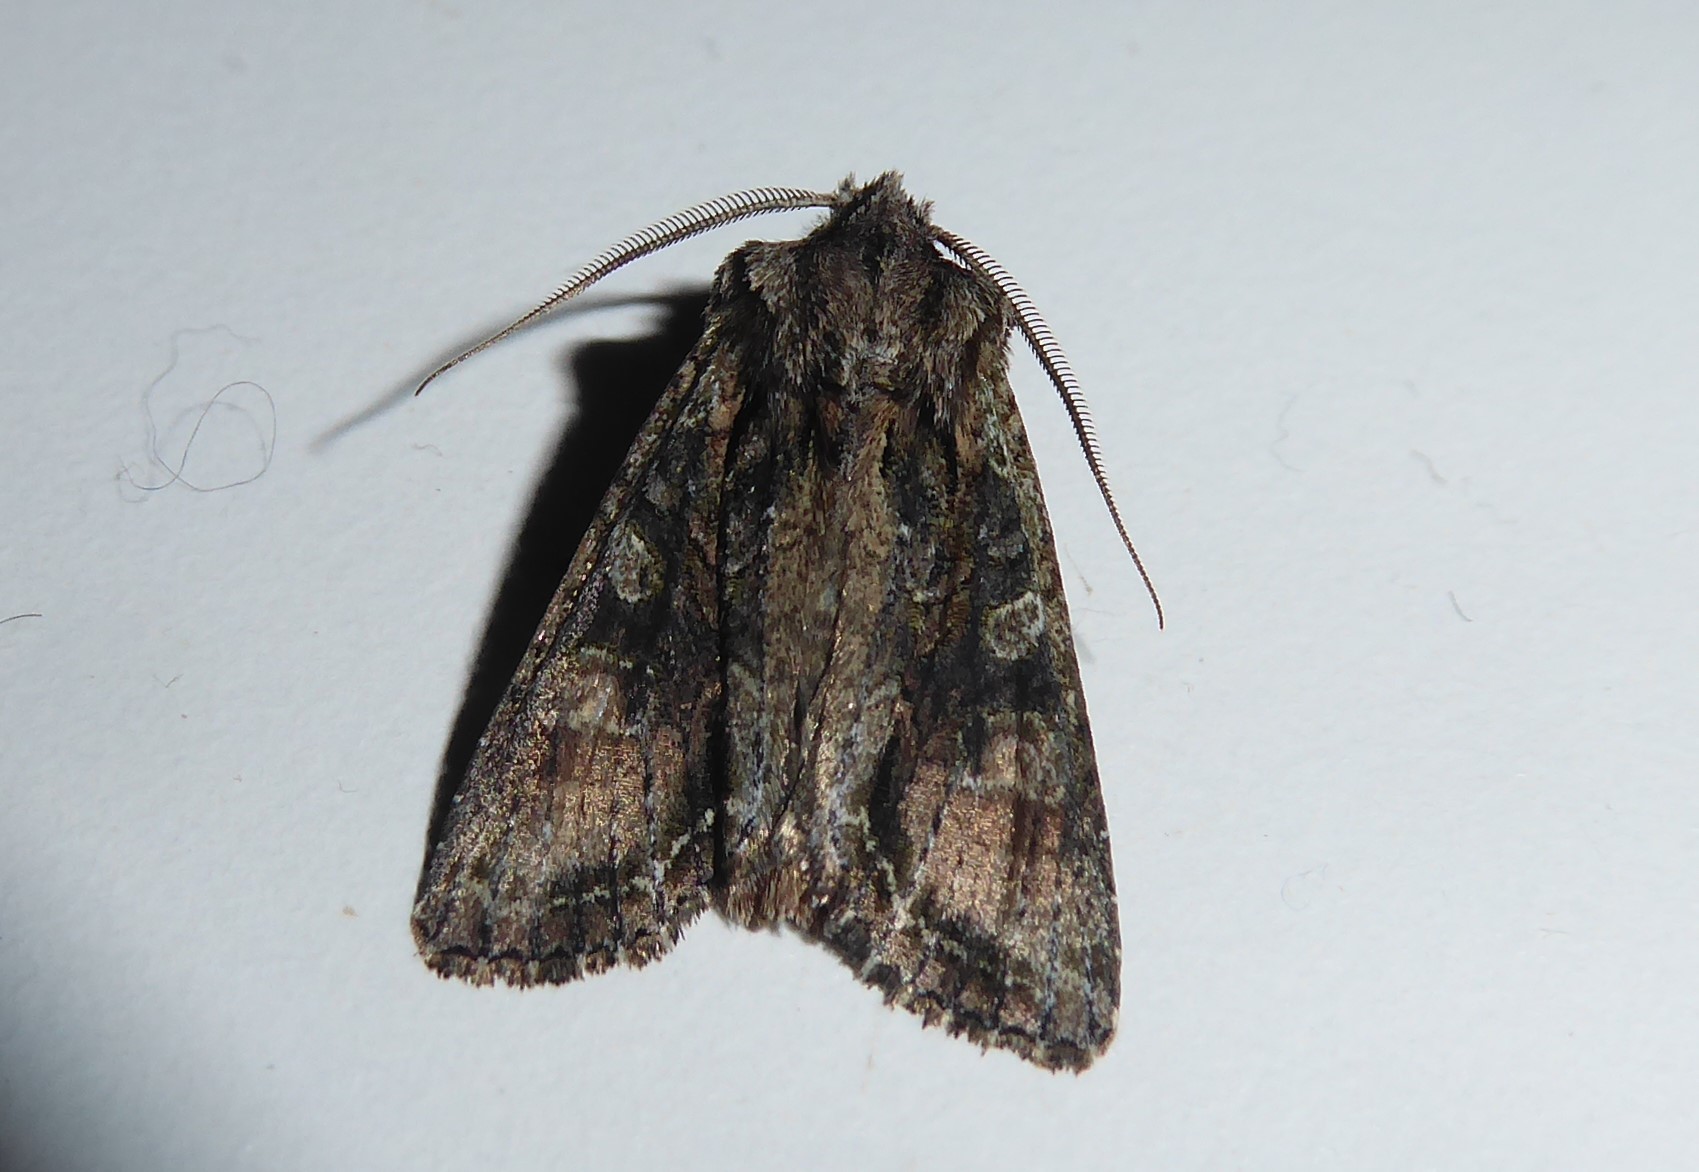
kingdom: Animalia
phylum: Arthropoda
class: Insecta
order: Lepidoptera
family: Noctuidae
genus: Ichneutica
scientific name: Ichneutica mutans
